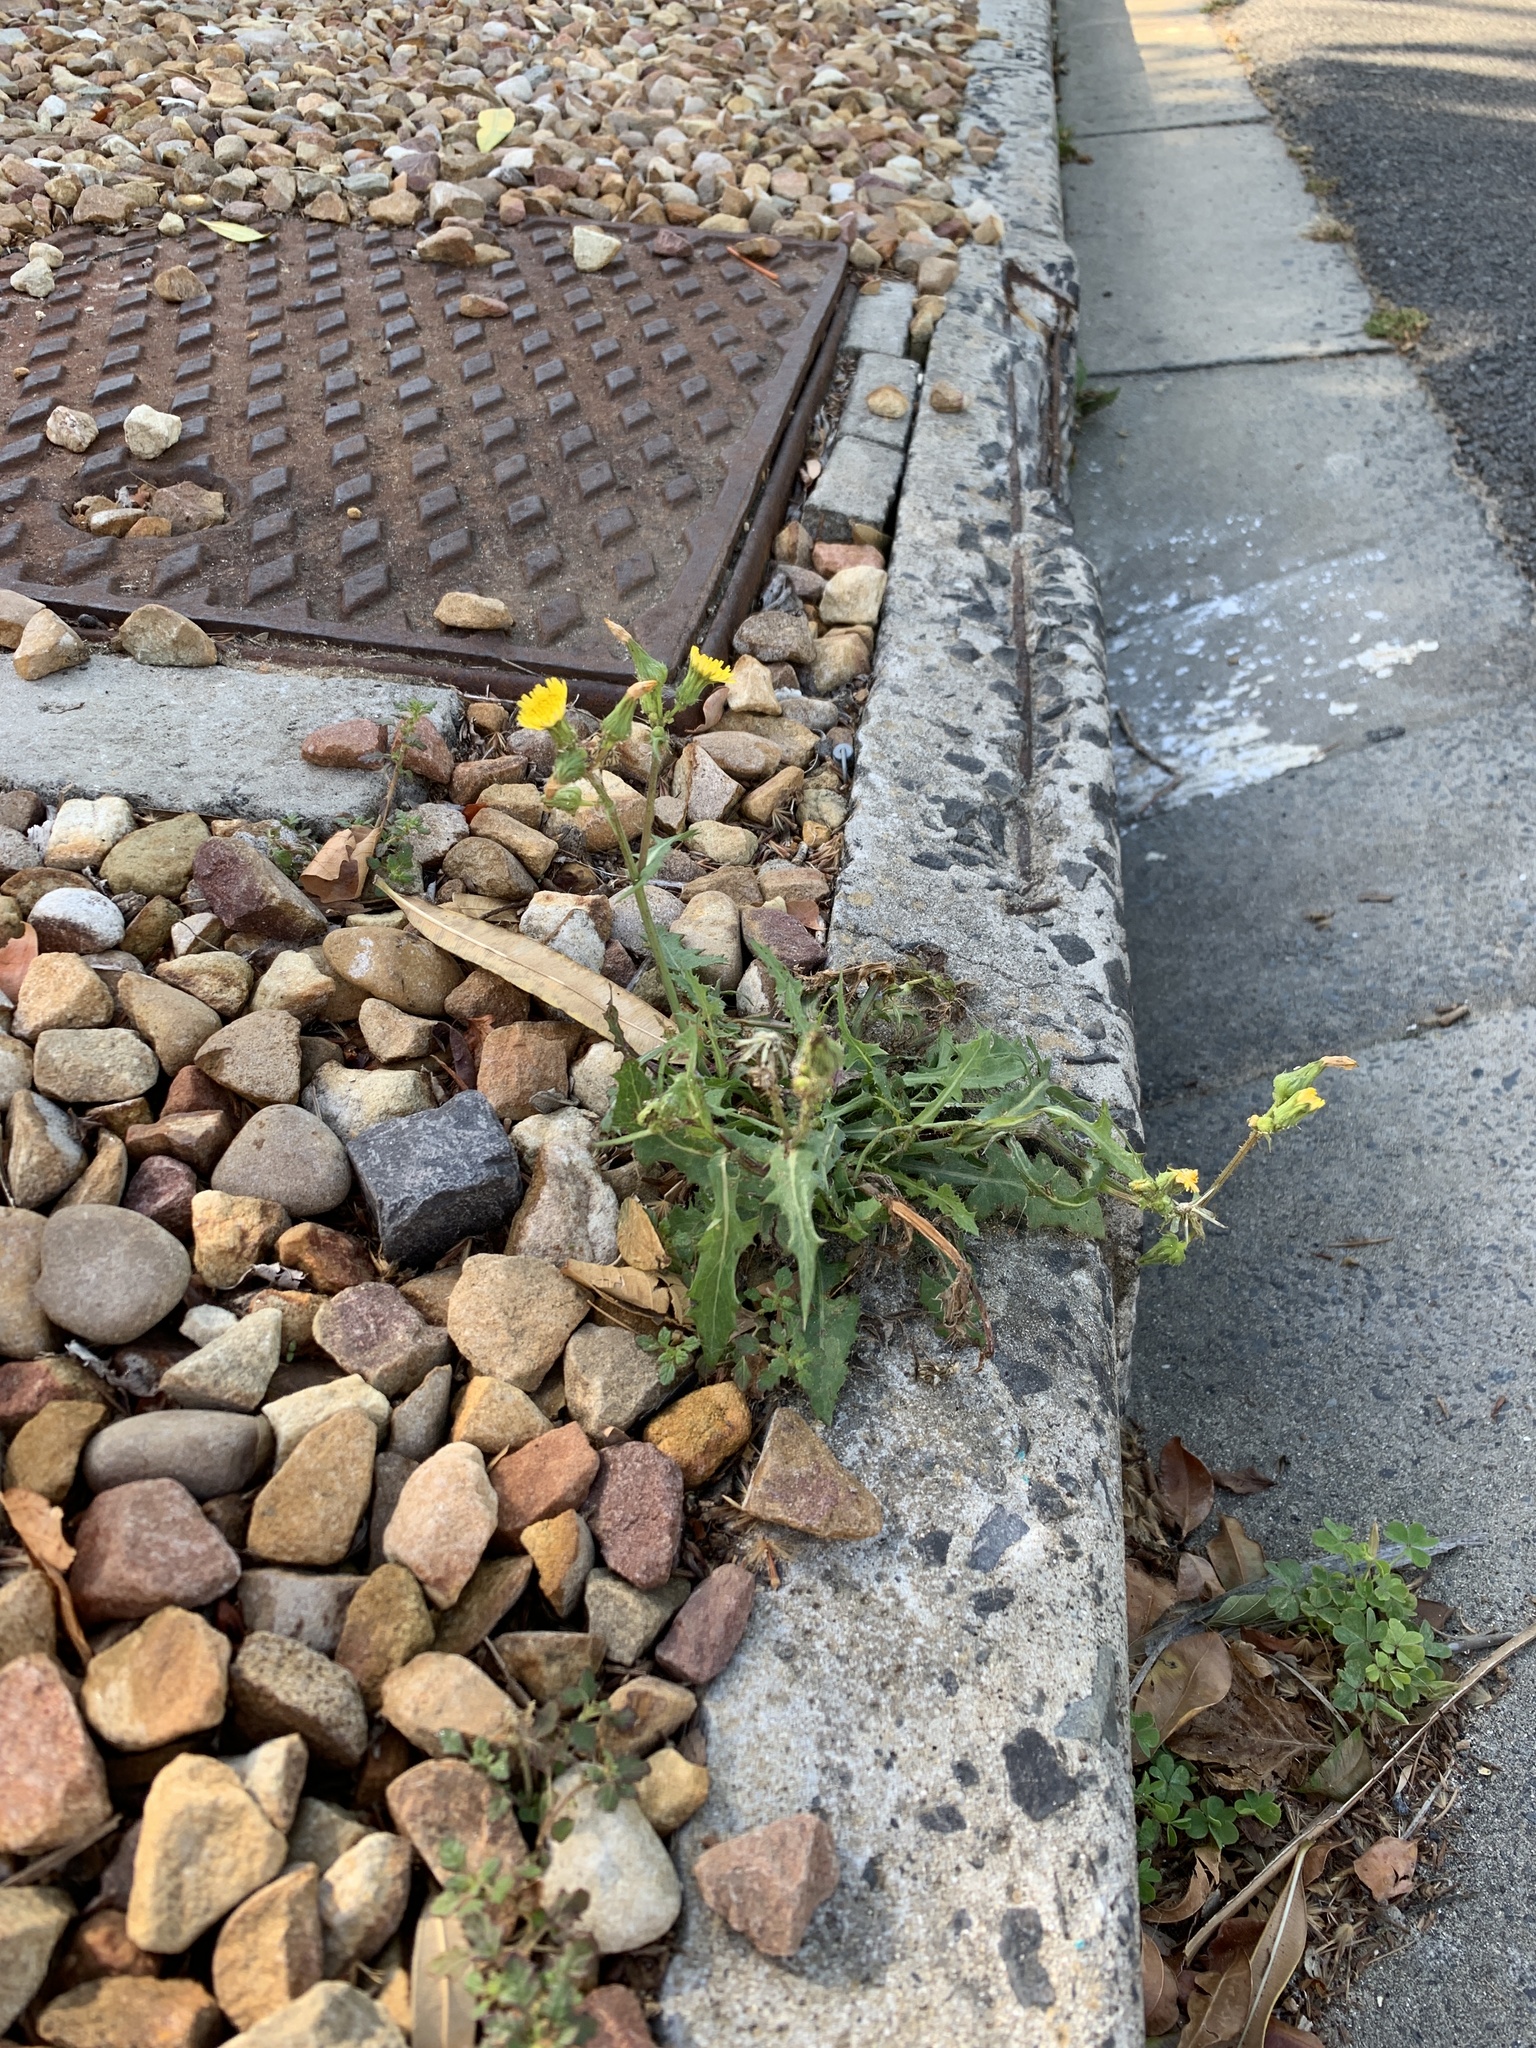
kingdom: Plantae
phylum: Tracheophyta
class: Magnoliopsida
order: Asterales
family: Asteraceae
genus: Sonchus
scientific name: Sonchus oleraceus
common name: Common sowthistle
